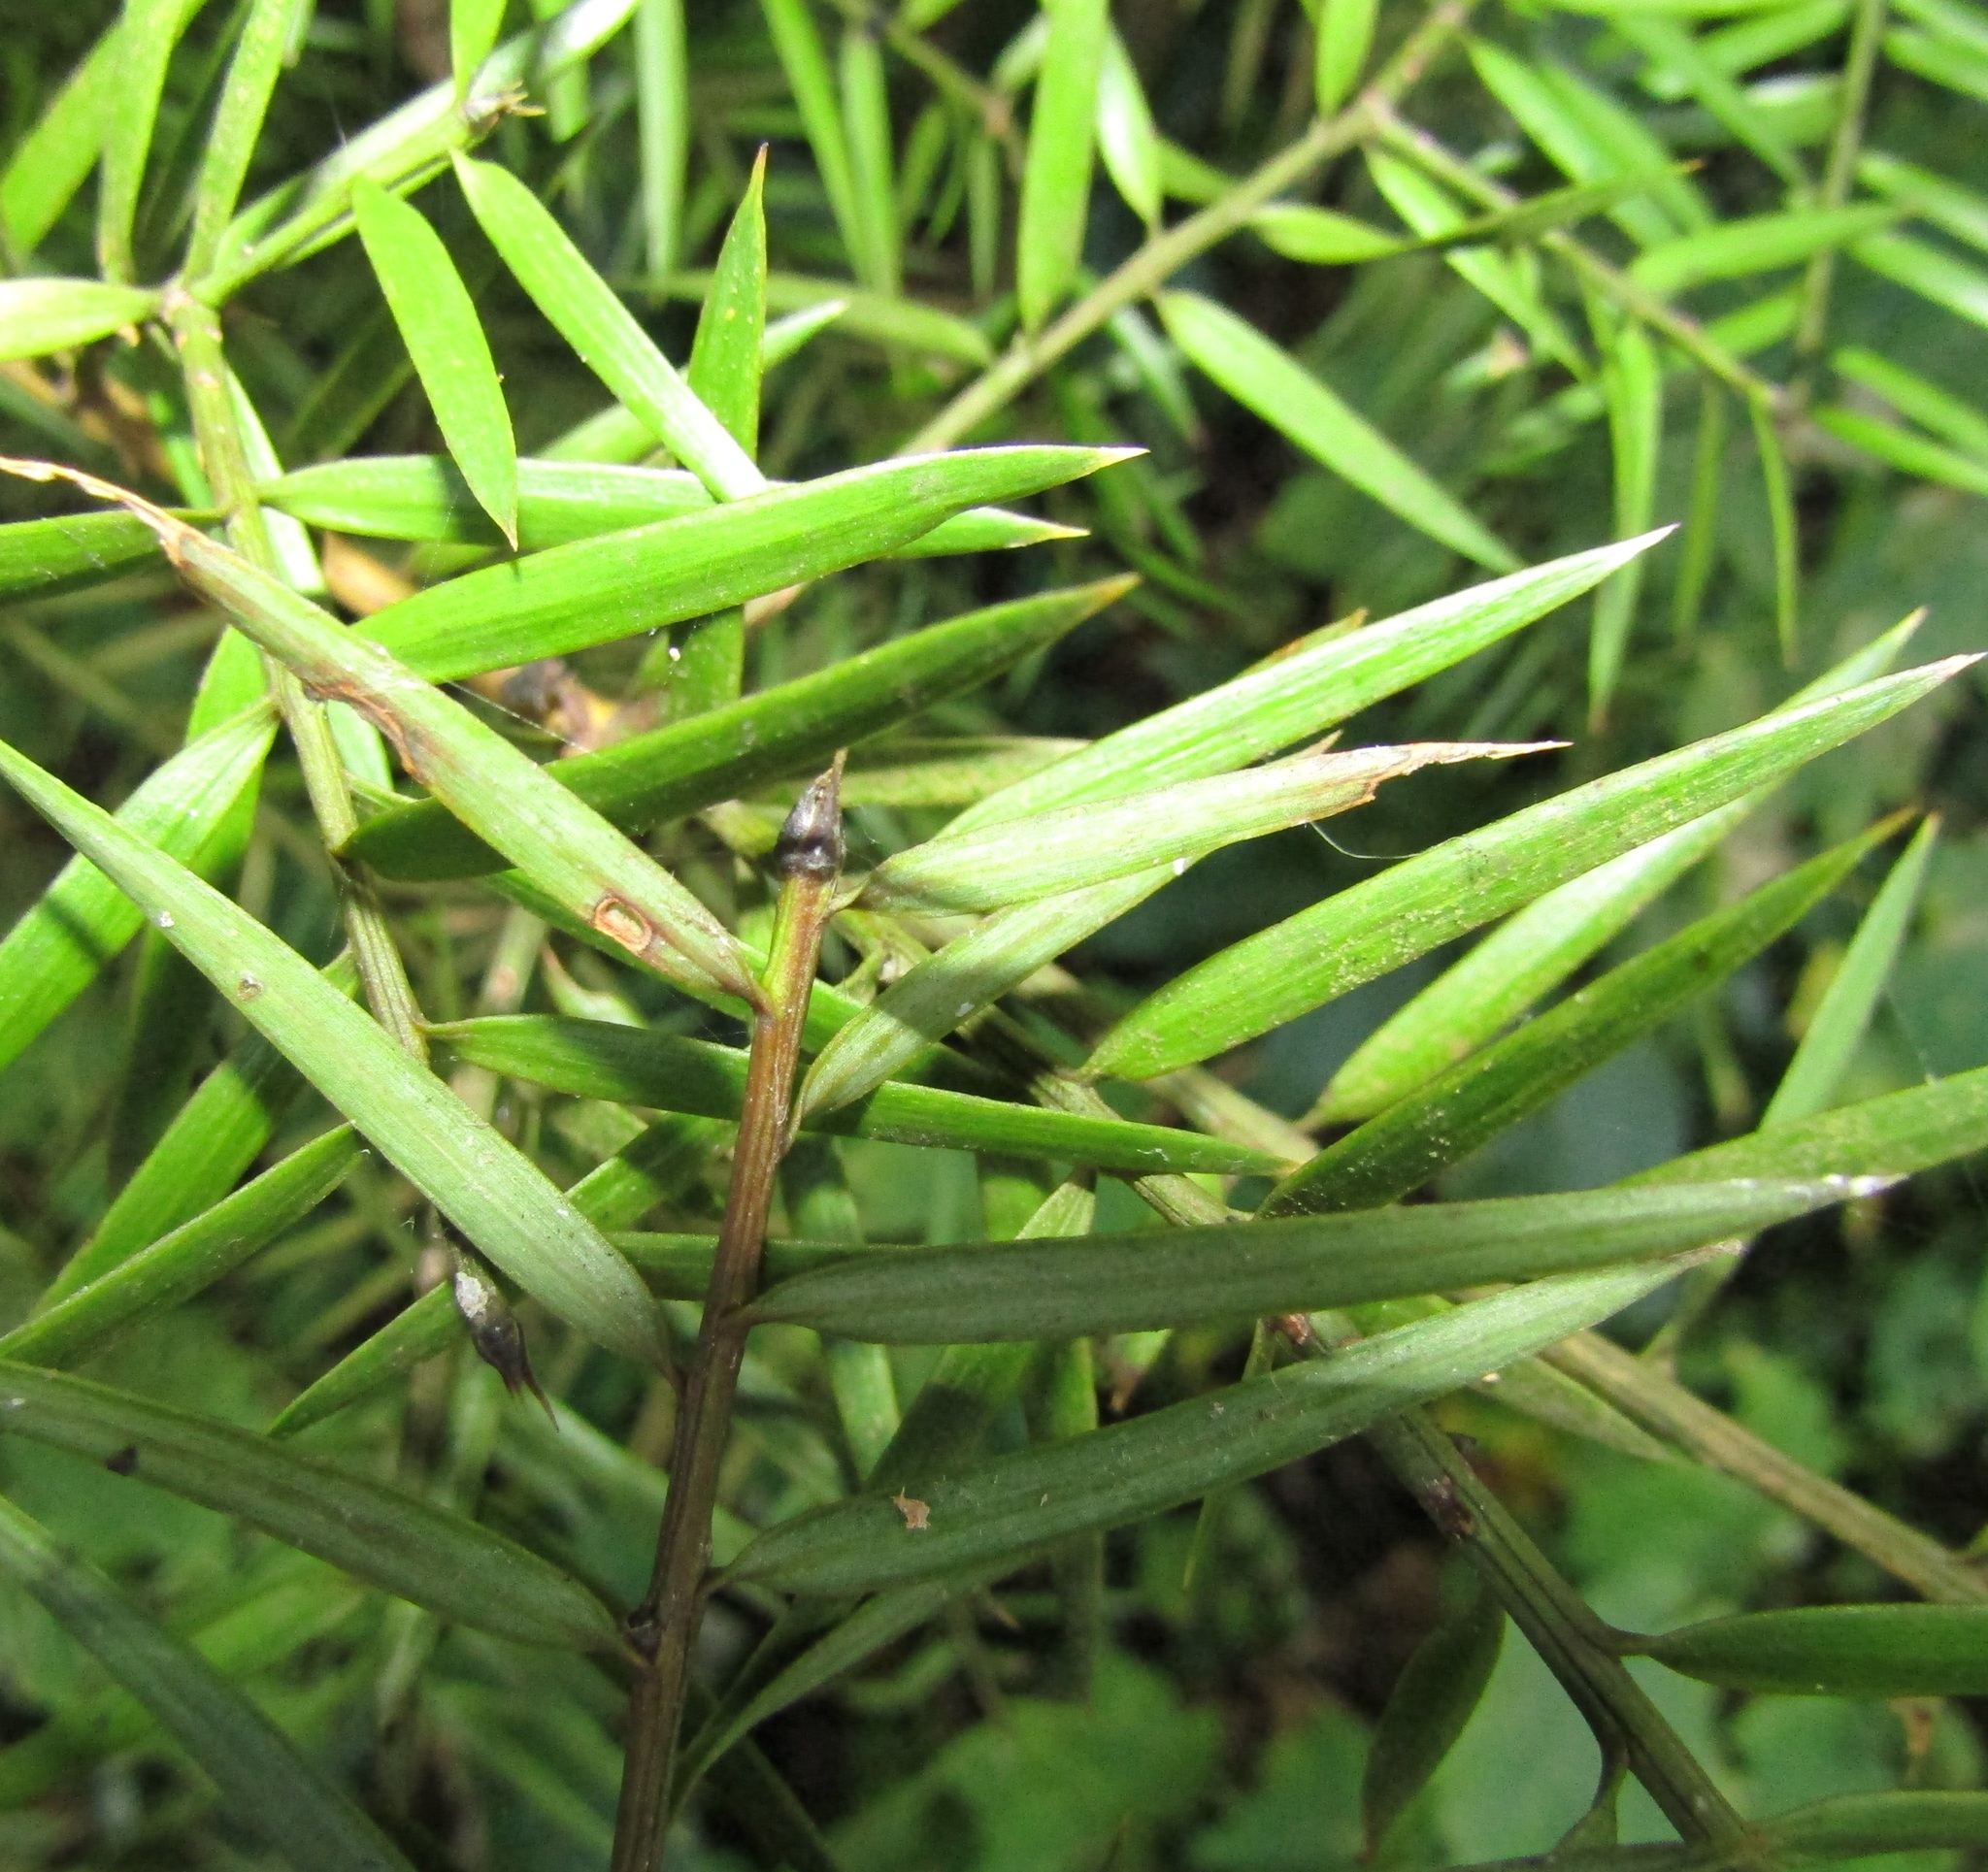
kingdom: Plantae
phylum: Tracheophyta
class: Pinopsida
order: Pinales
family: Podocarpaceae
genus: Podocarpus
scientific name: Podocarpus totara
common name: Totara
